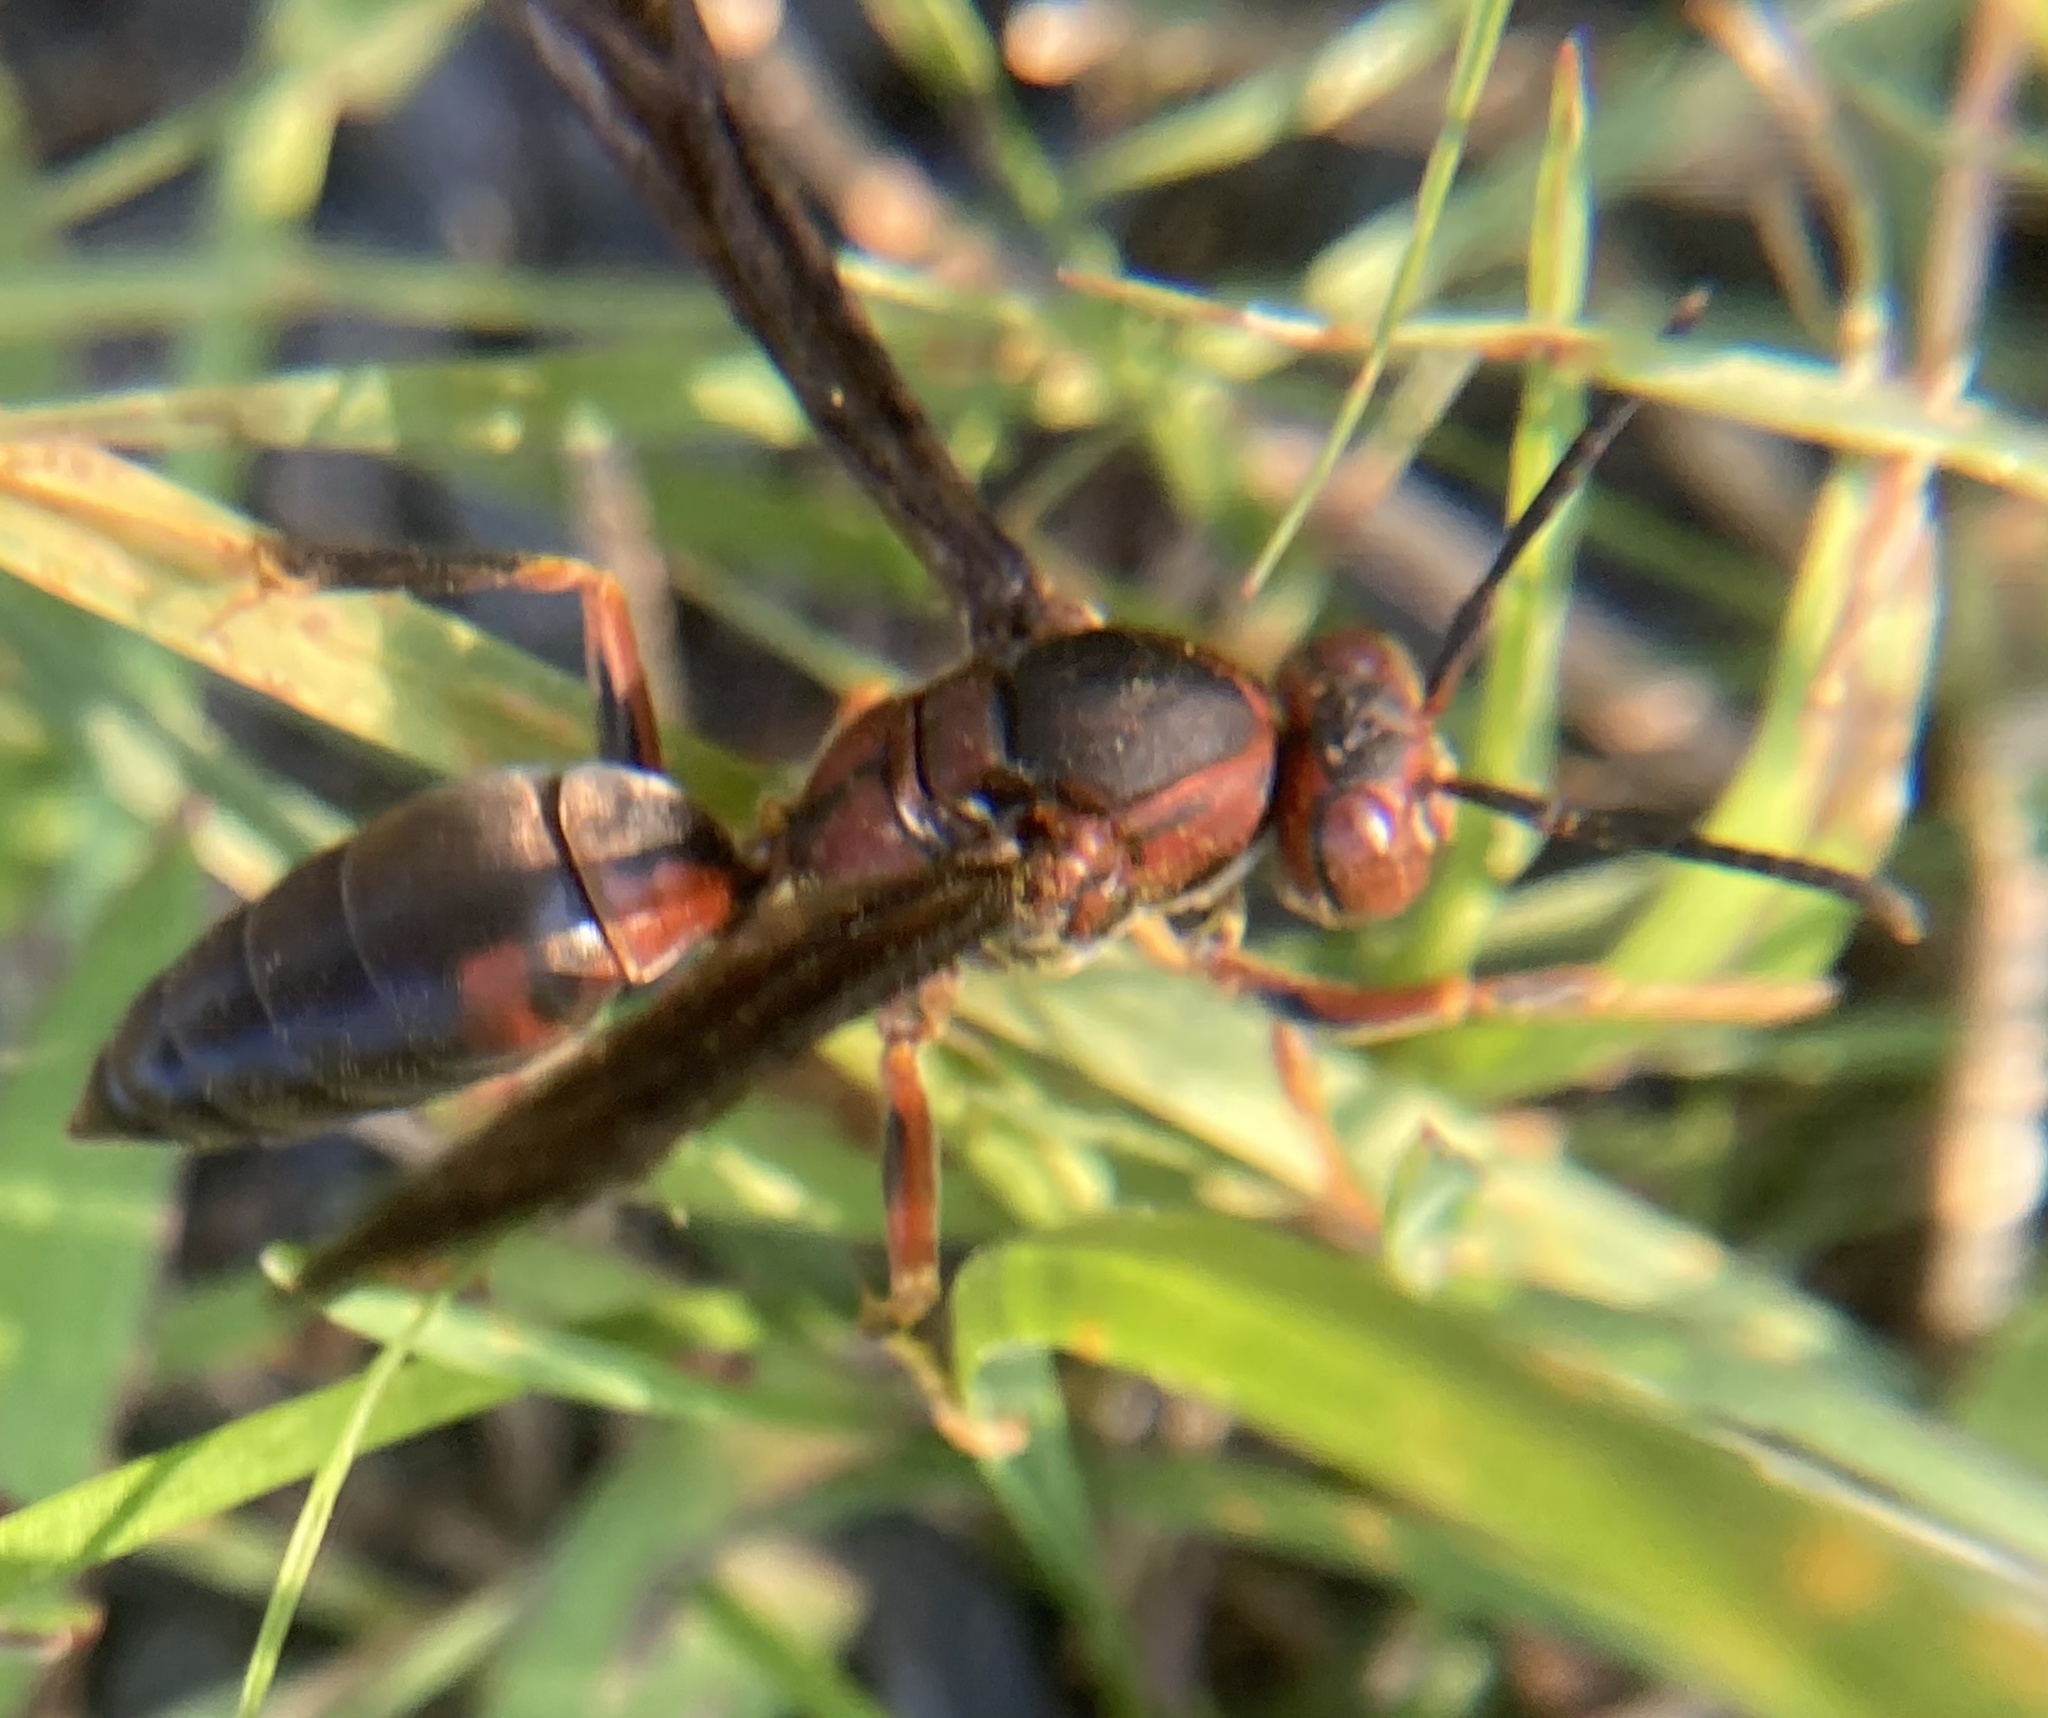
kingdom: Animalia
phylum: Arthropoda
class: Insecta
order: Hymenoptera
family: Eumenidae
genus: Polistes
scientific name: Polistes metricus
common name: Metric paper wasp
